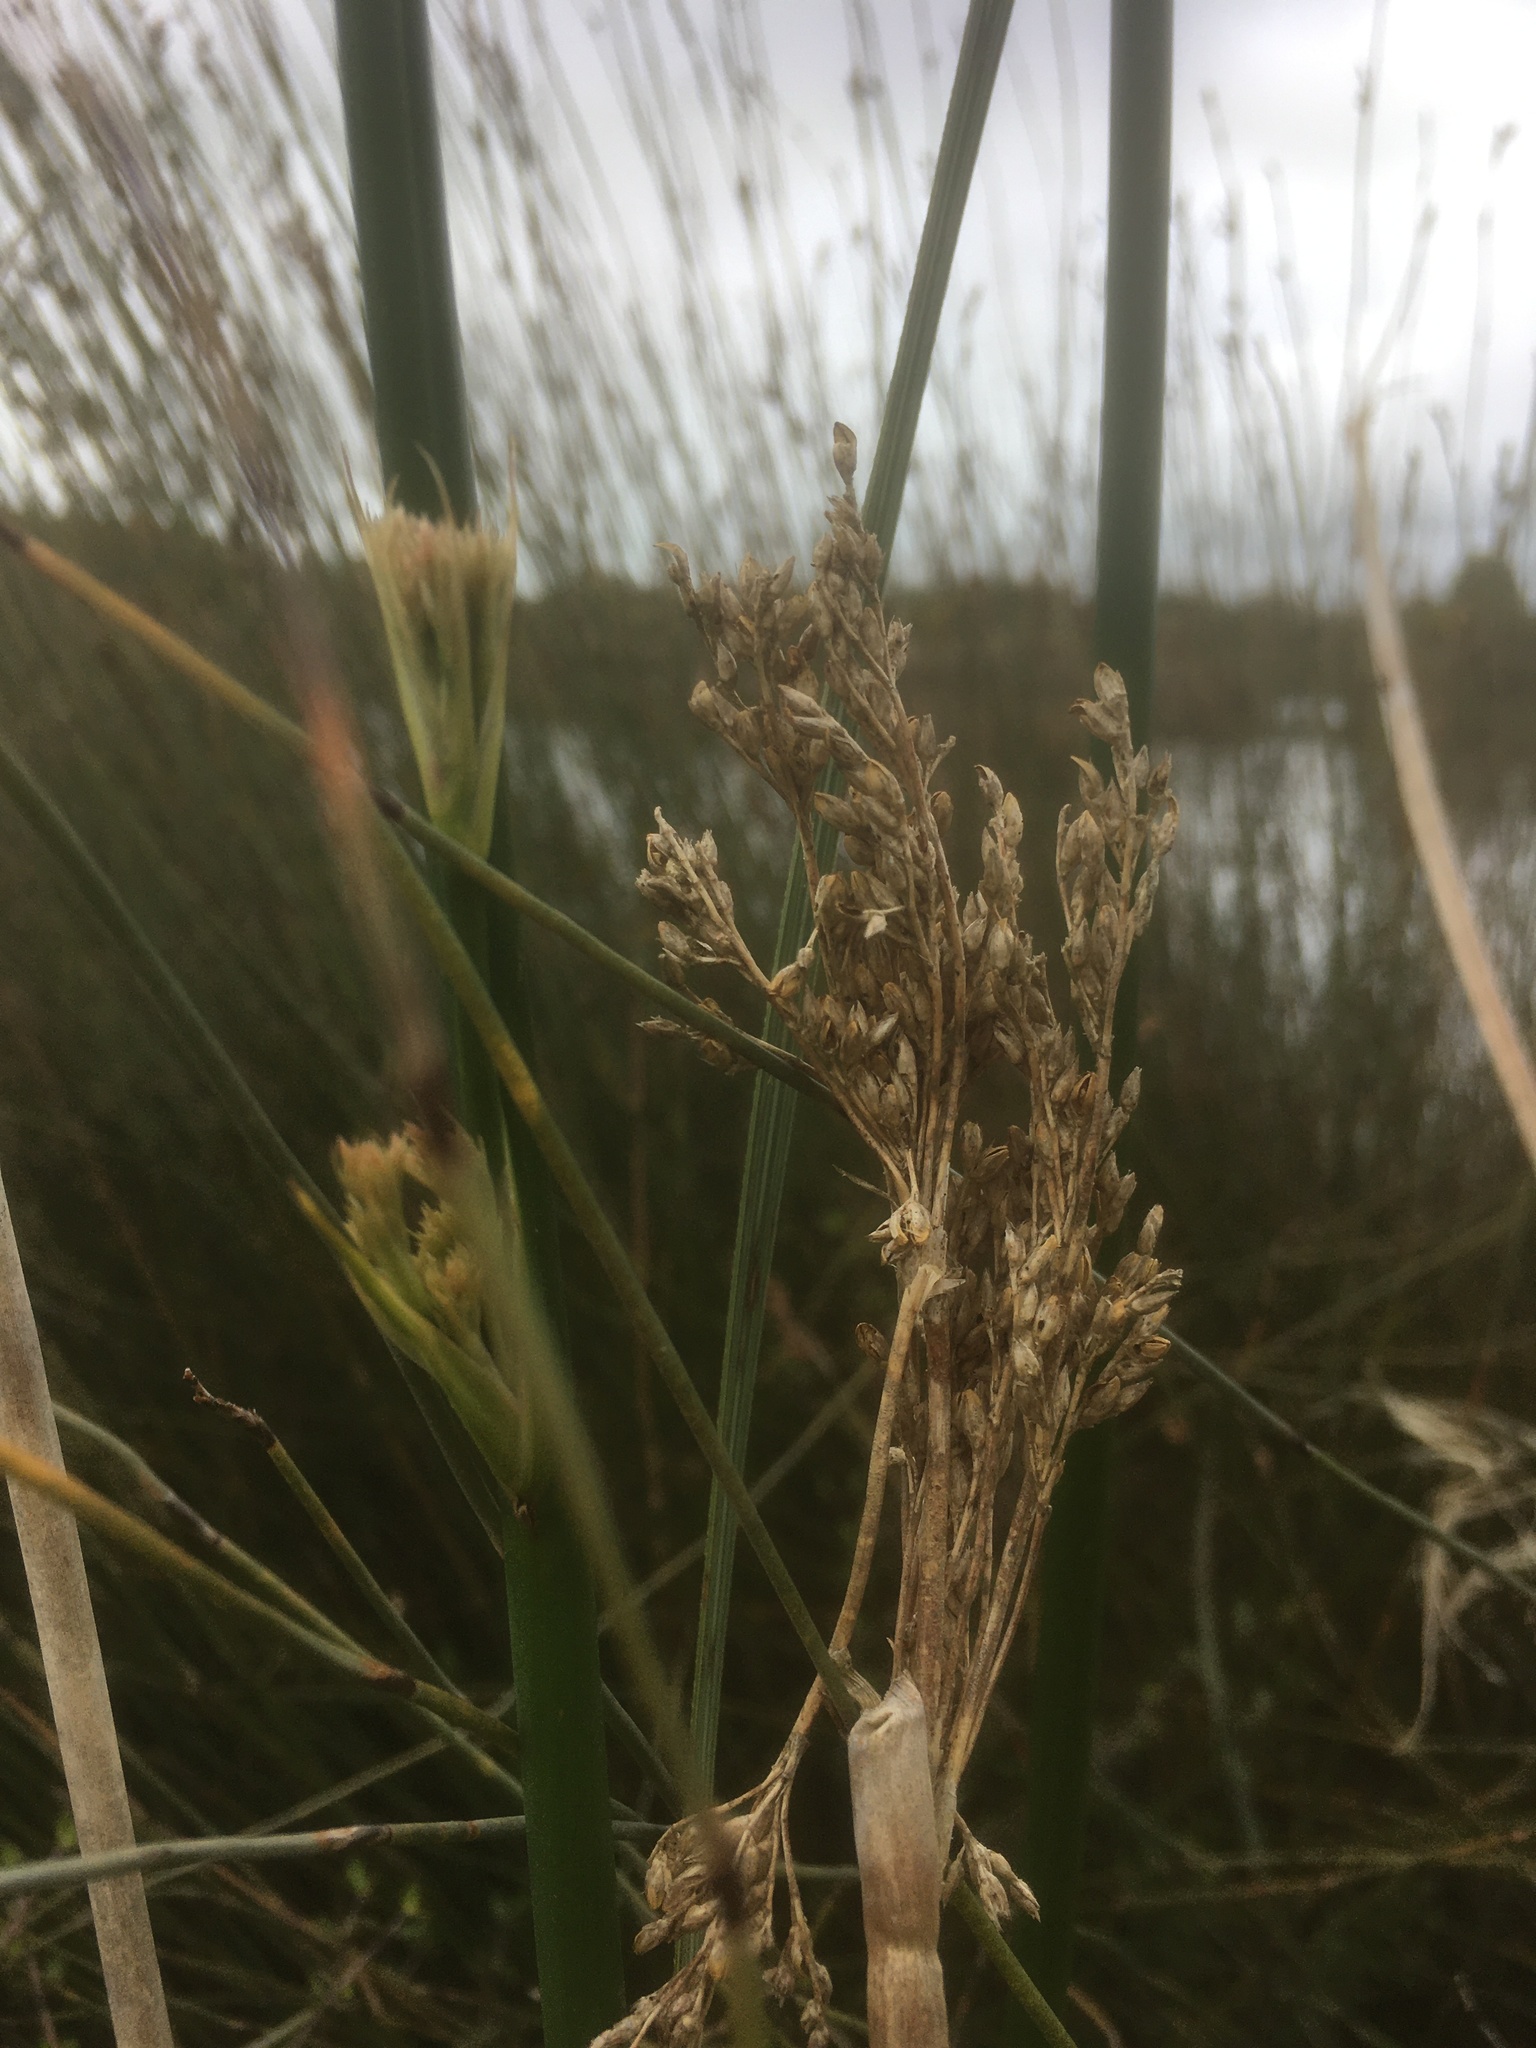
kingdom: Plantae
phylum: Tracheophyta
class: Liliopsida
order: Poales
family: Juncaceae
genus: Juncus
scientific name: Juncus procerus
